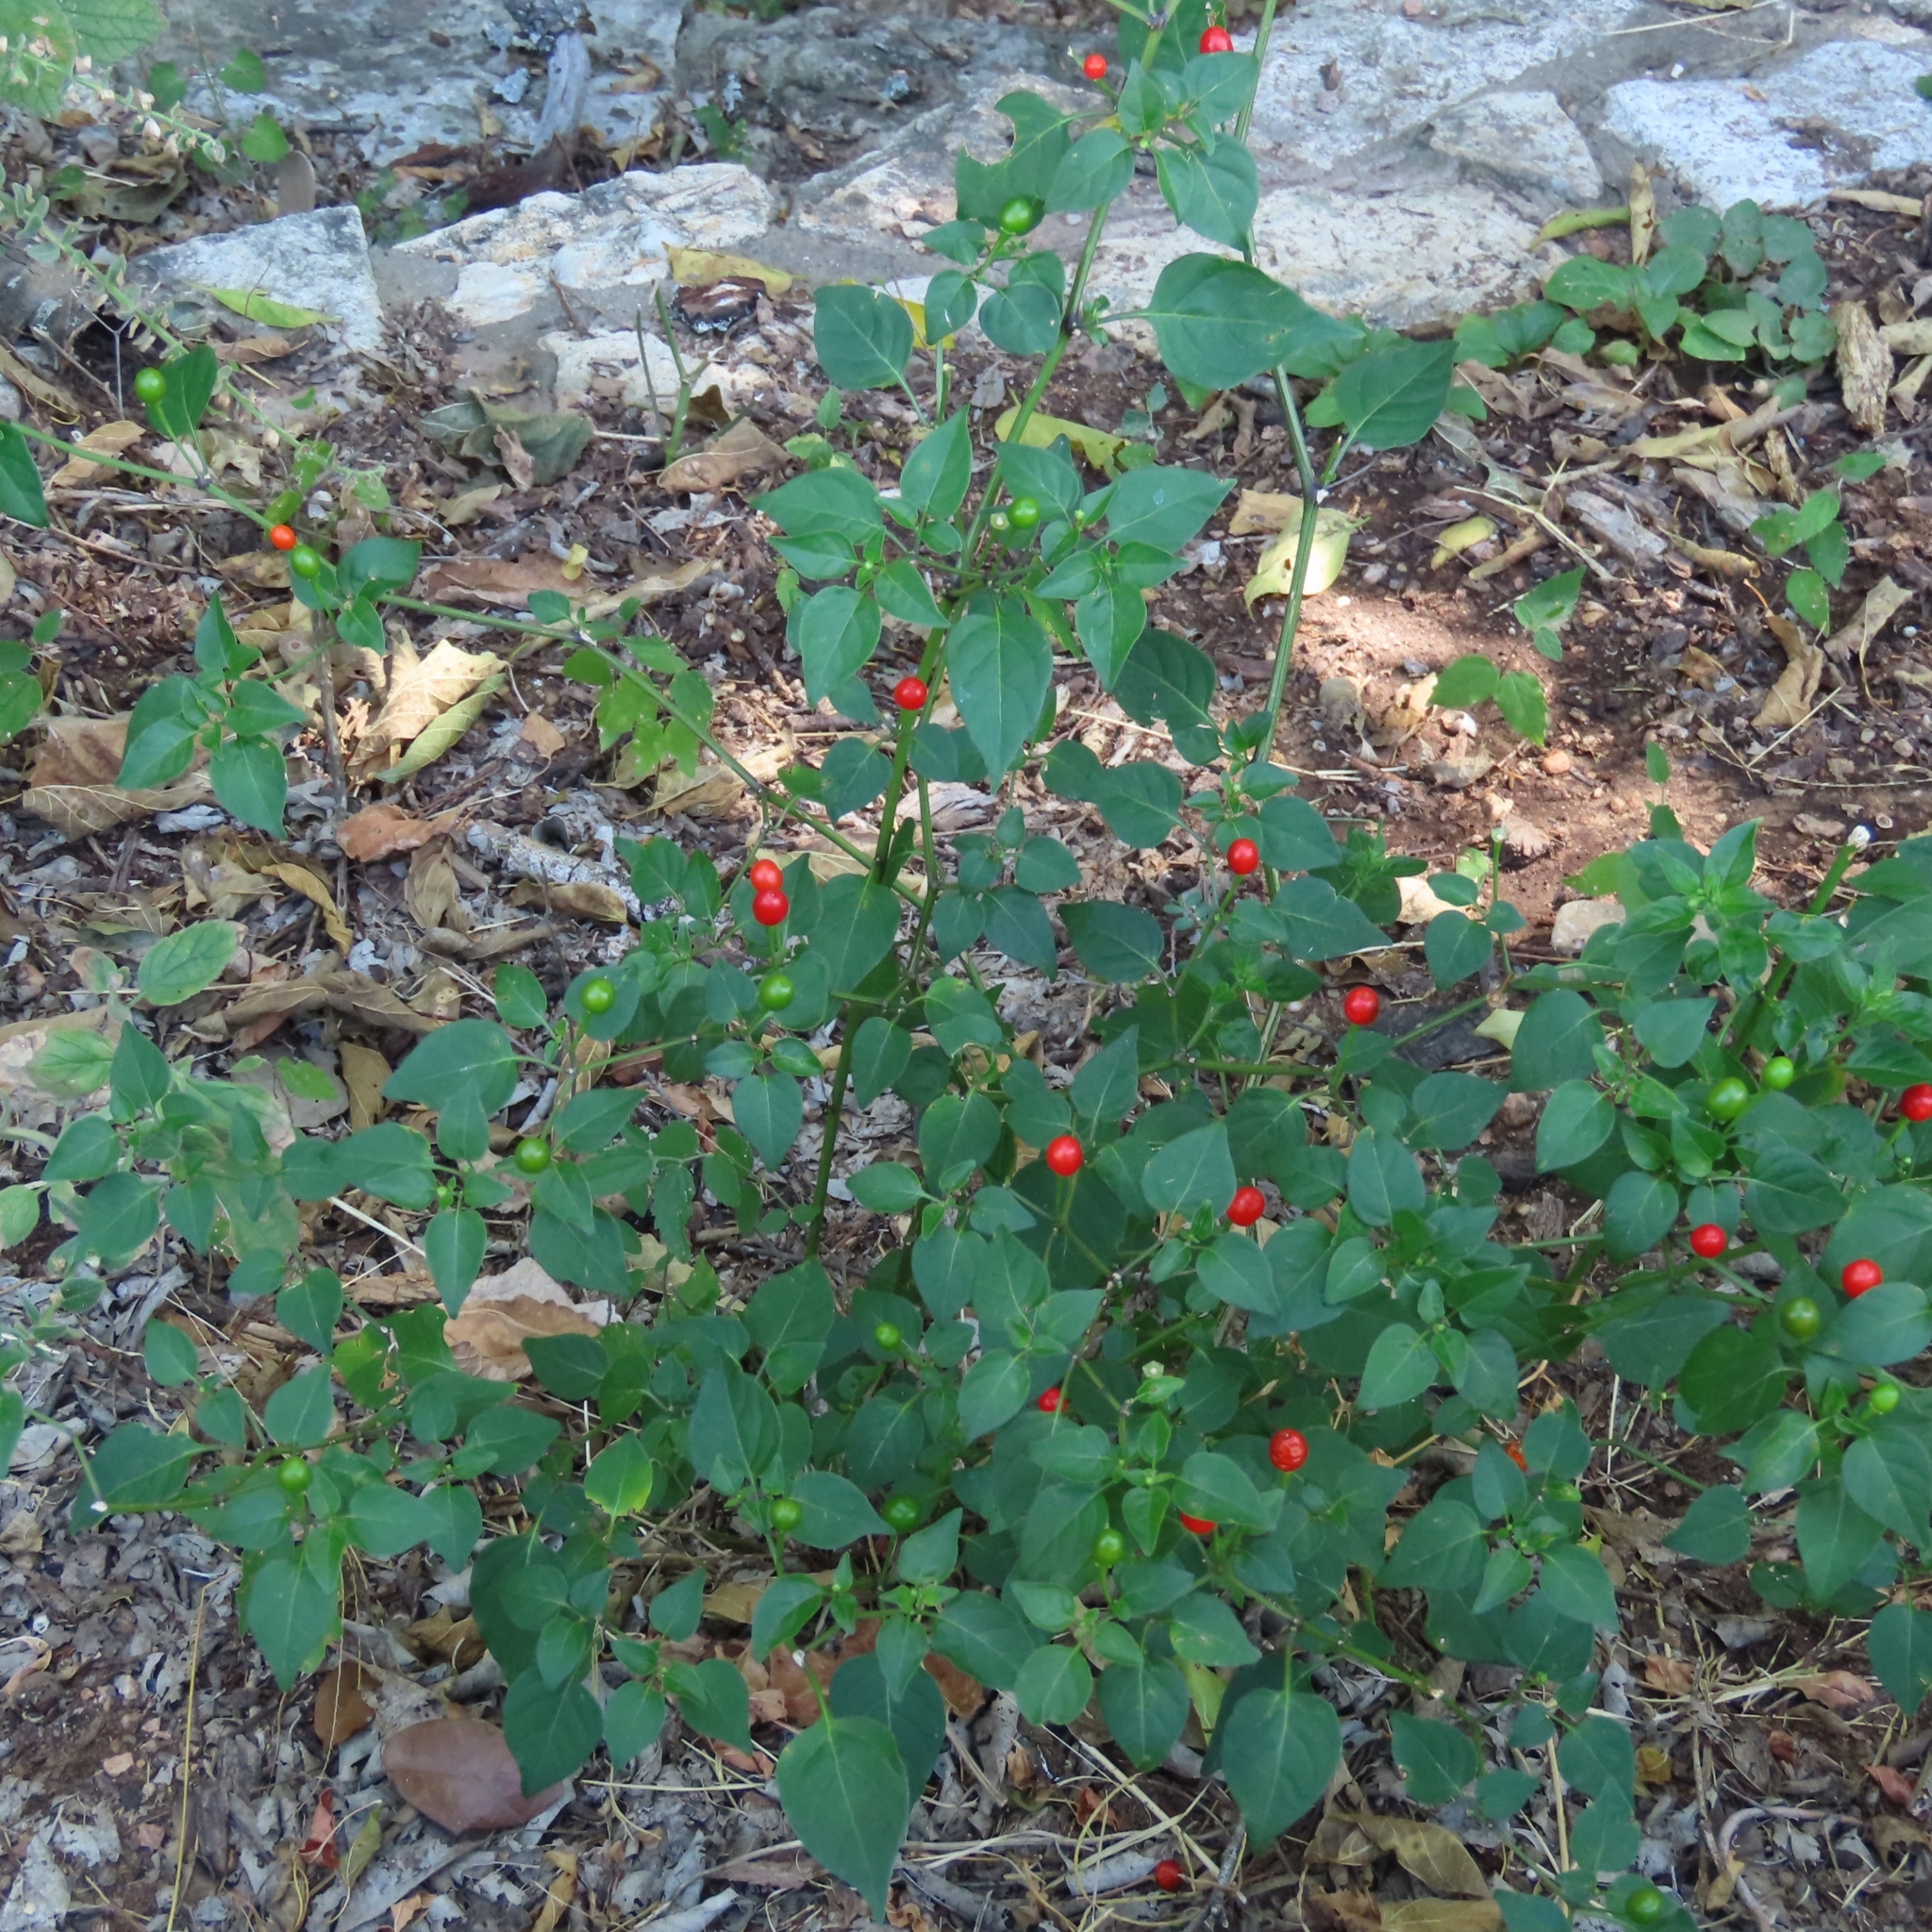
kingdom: Plantae
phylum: Tracheophyta
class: Magnoliopsida
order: Solanales
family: Solanaceae
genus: Capsicum
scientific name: Capsicum annuum
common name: Sweet pepper
